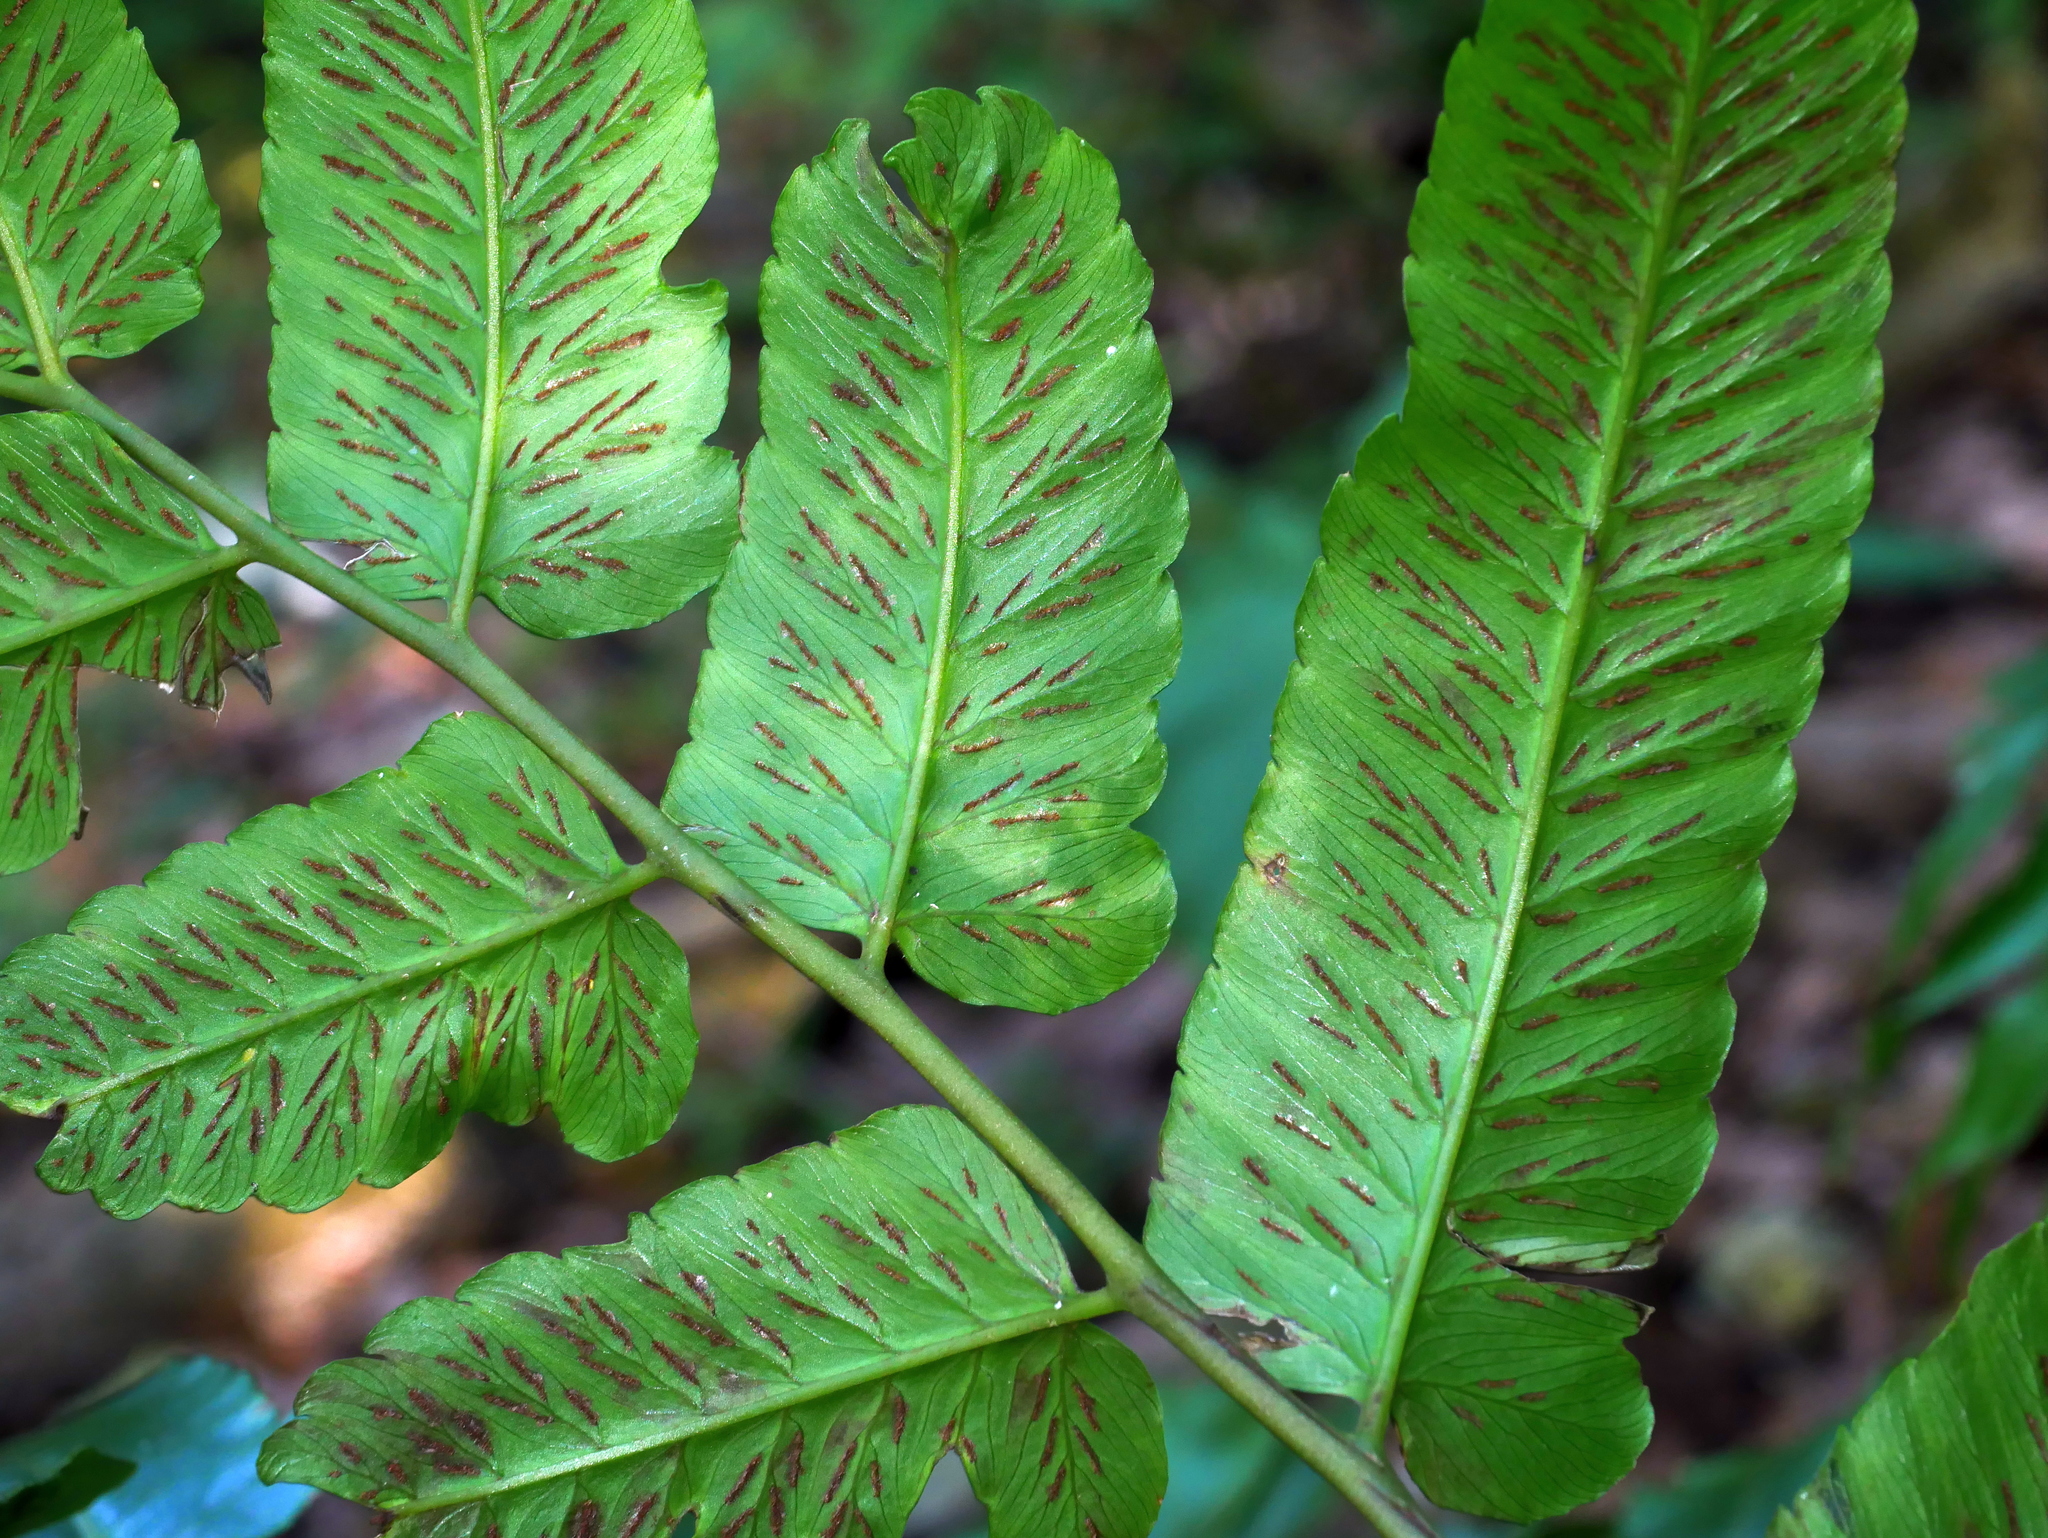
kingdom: Plantae
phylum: Tracheophyta
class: Polypodiopsida
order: Polypodiales
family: Athyriaceae
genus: Diplazium
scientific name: Diplazium megaphyllum
